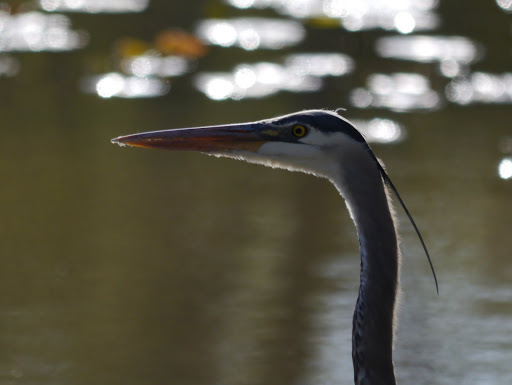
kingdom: Animalia
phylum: Chordata
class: Aves
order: Pelecaniformes
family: Ardeidae
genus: Ardea
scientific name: Ardea herodias
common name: Great blue heron
